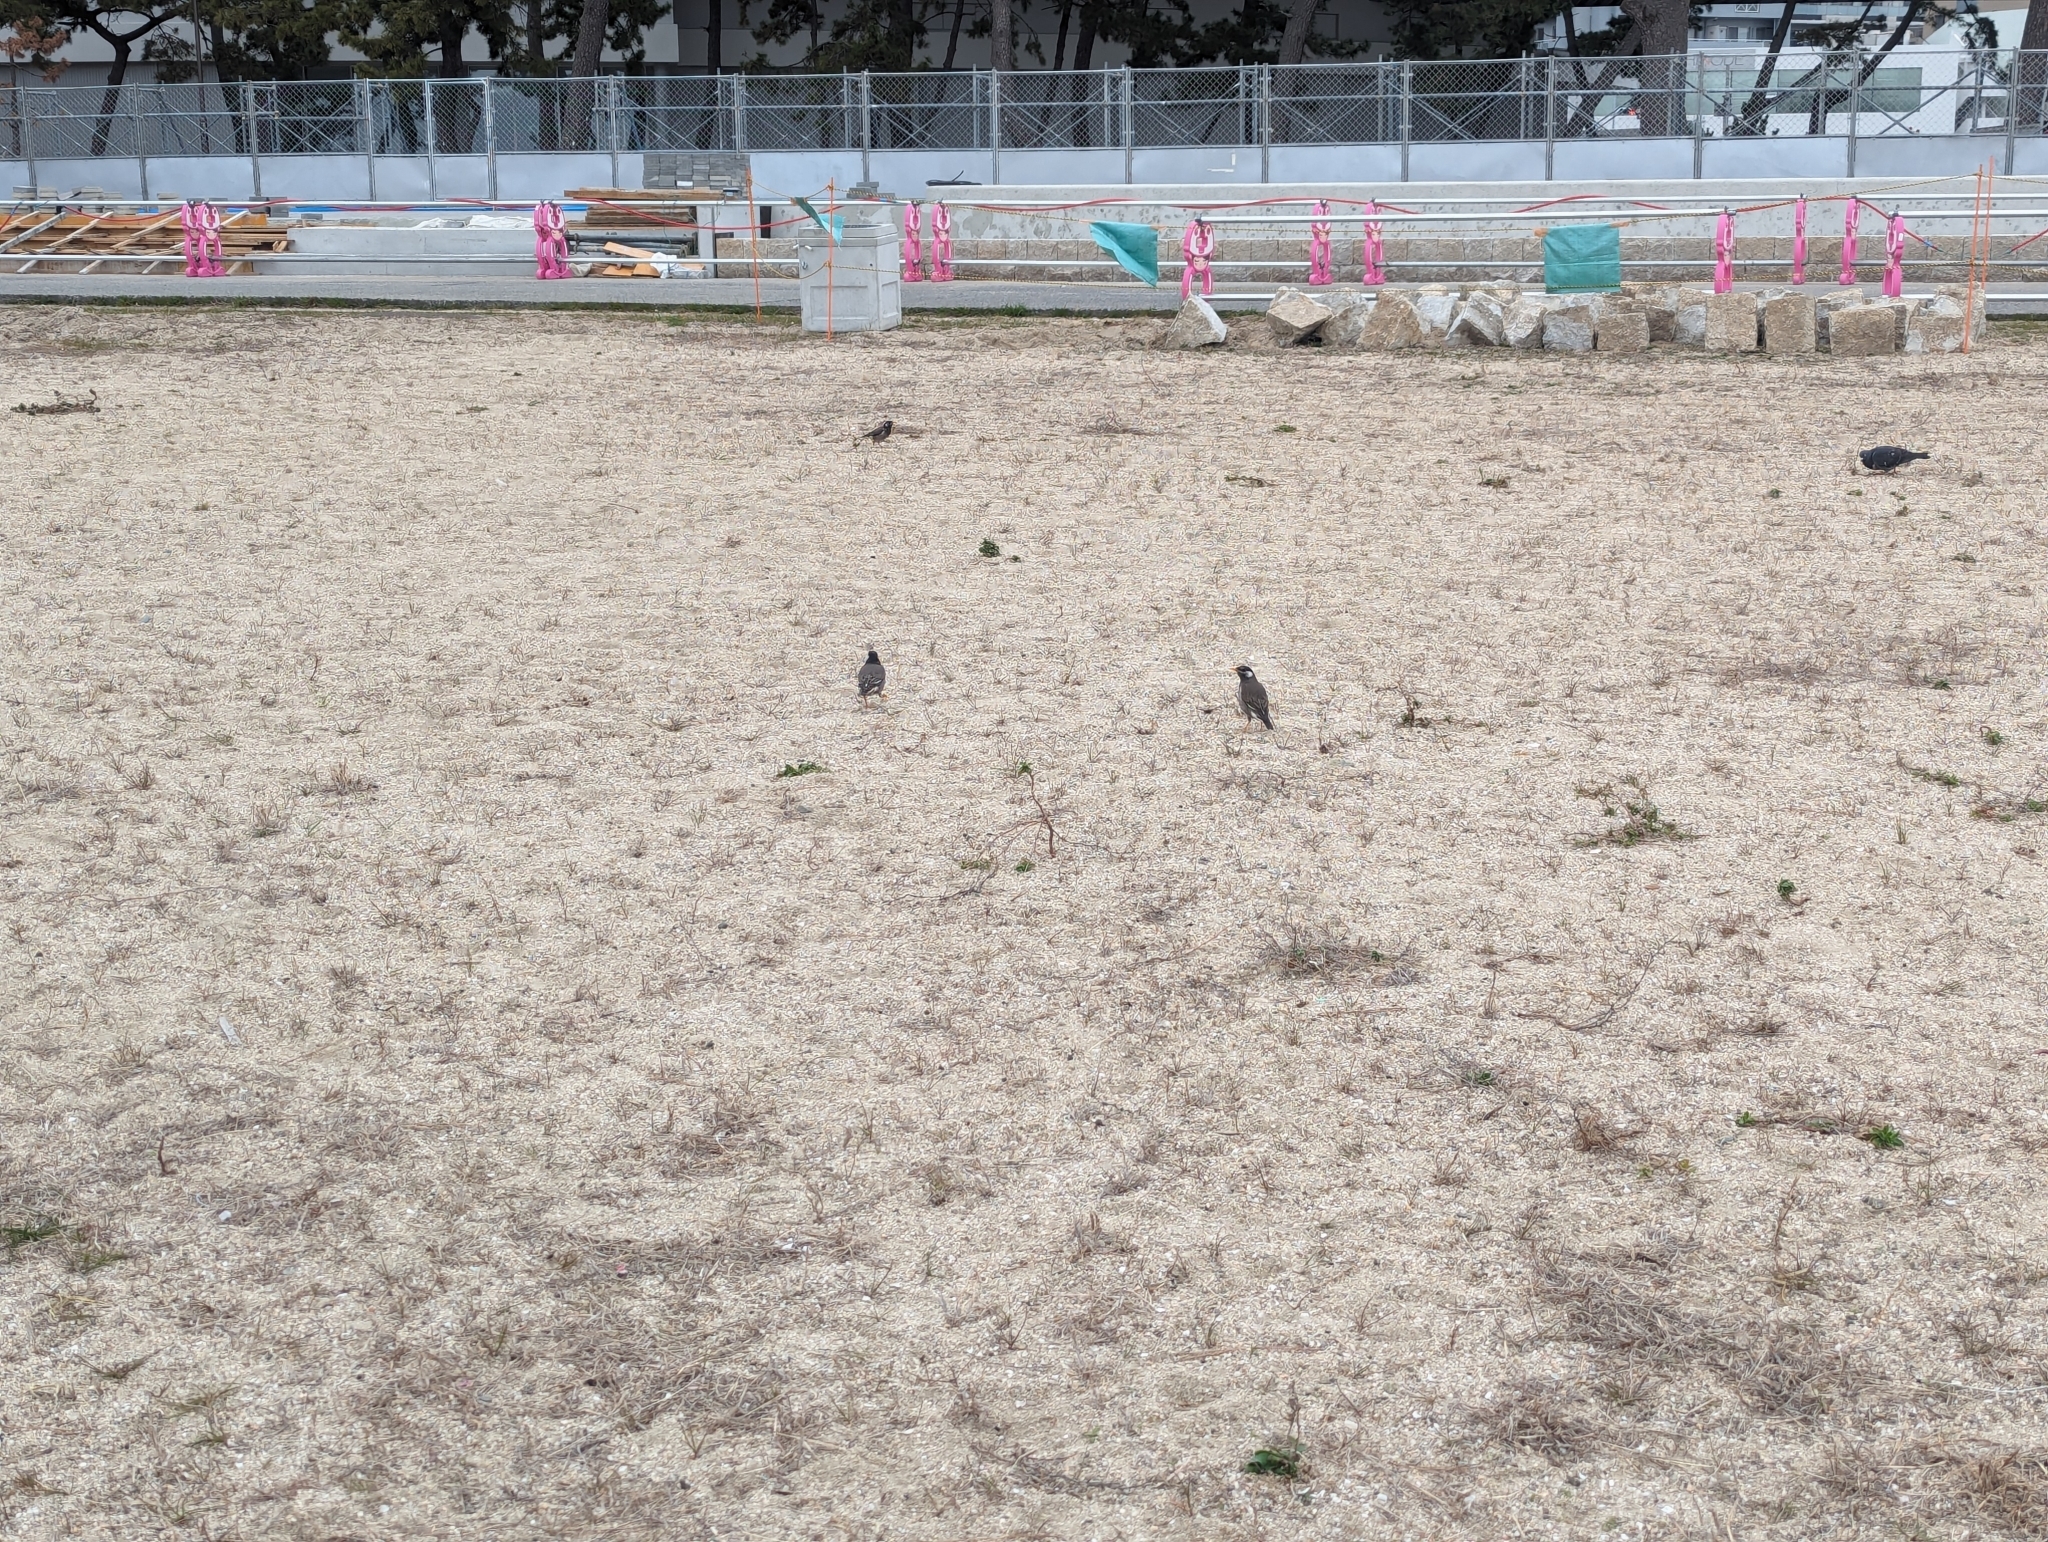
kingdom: Animalia
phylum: Chordata
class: Aves
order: Passeriformes
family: Sturnidae
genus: Spodiopsar
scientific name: Spodiopsar cineraceus
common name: White-cheeked starling
